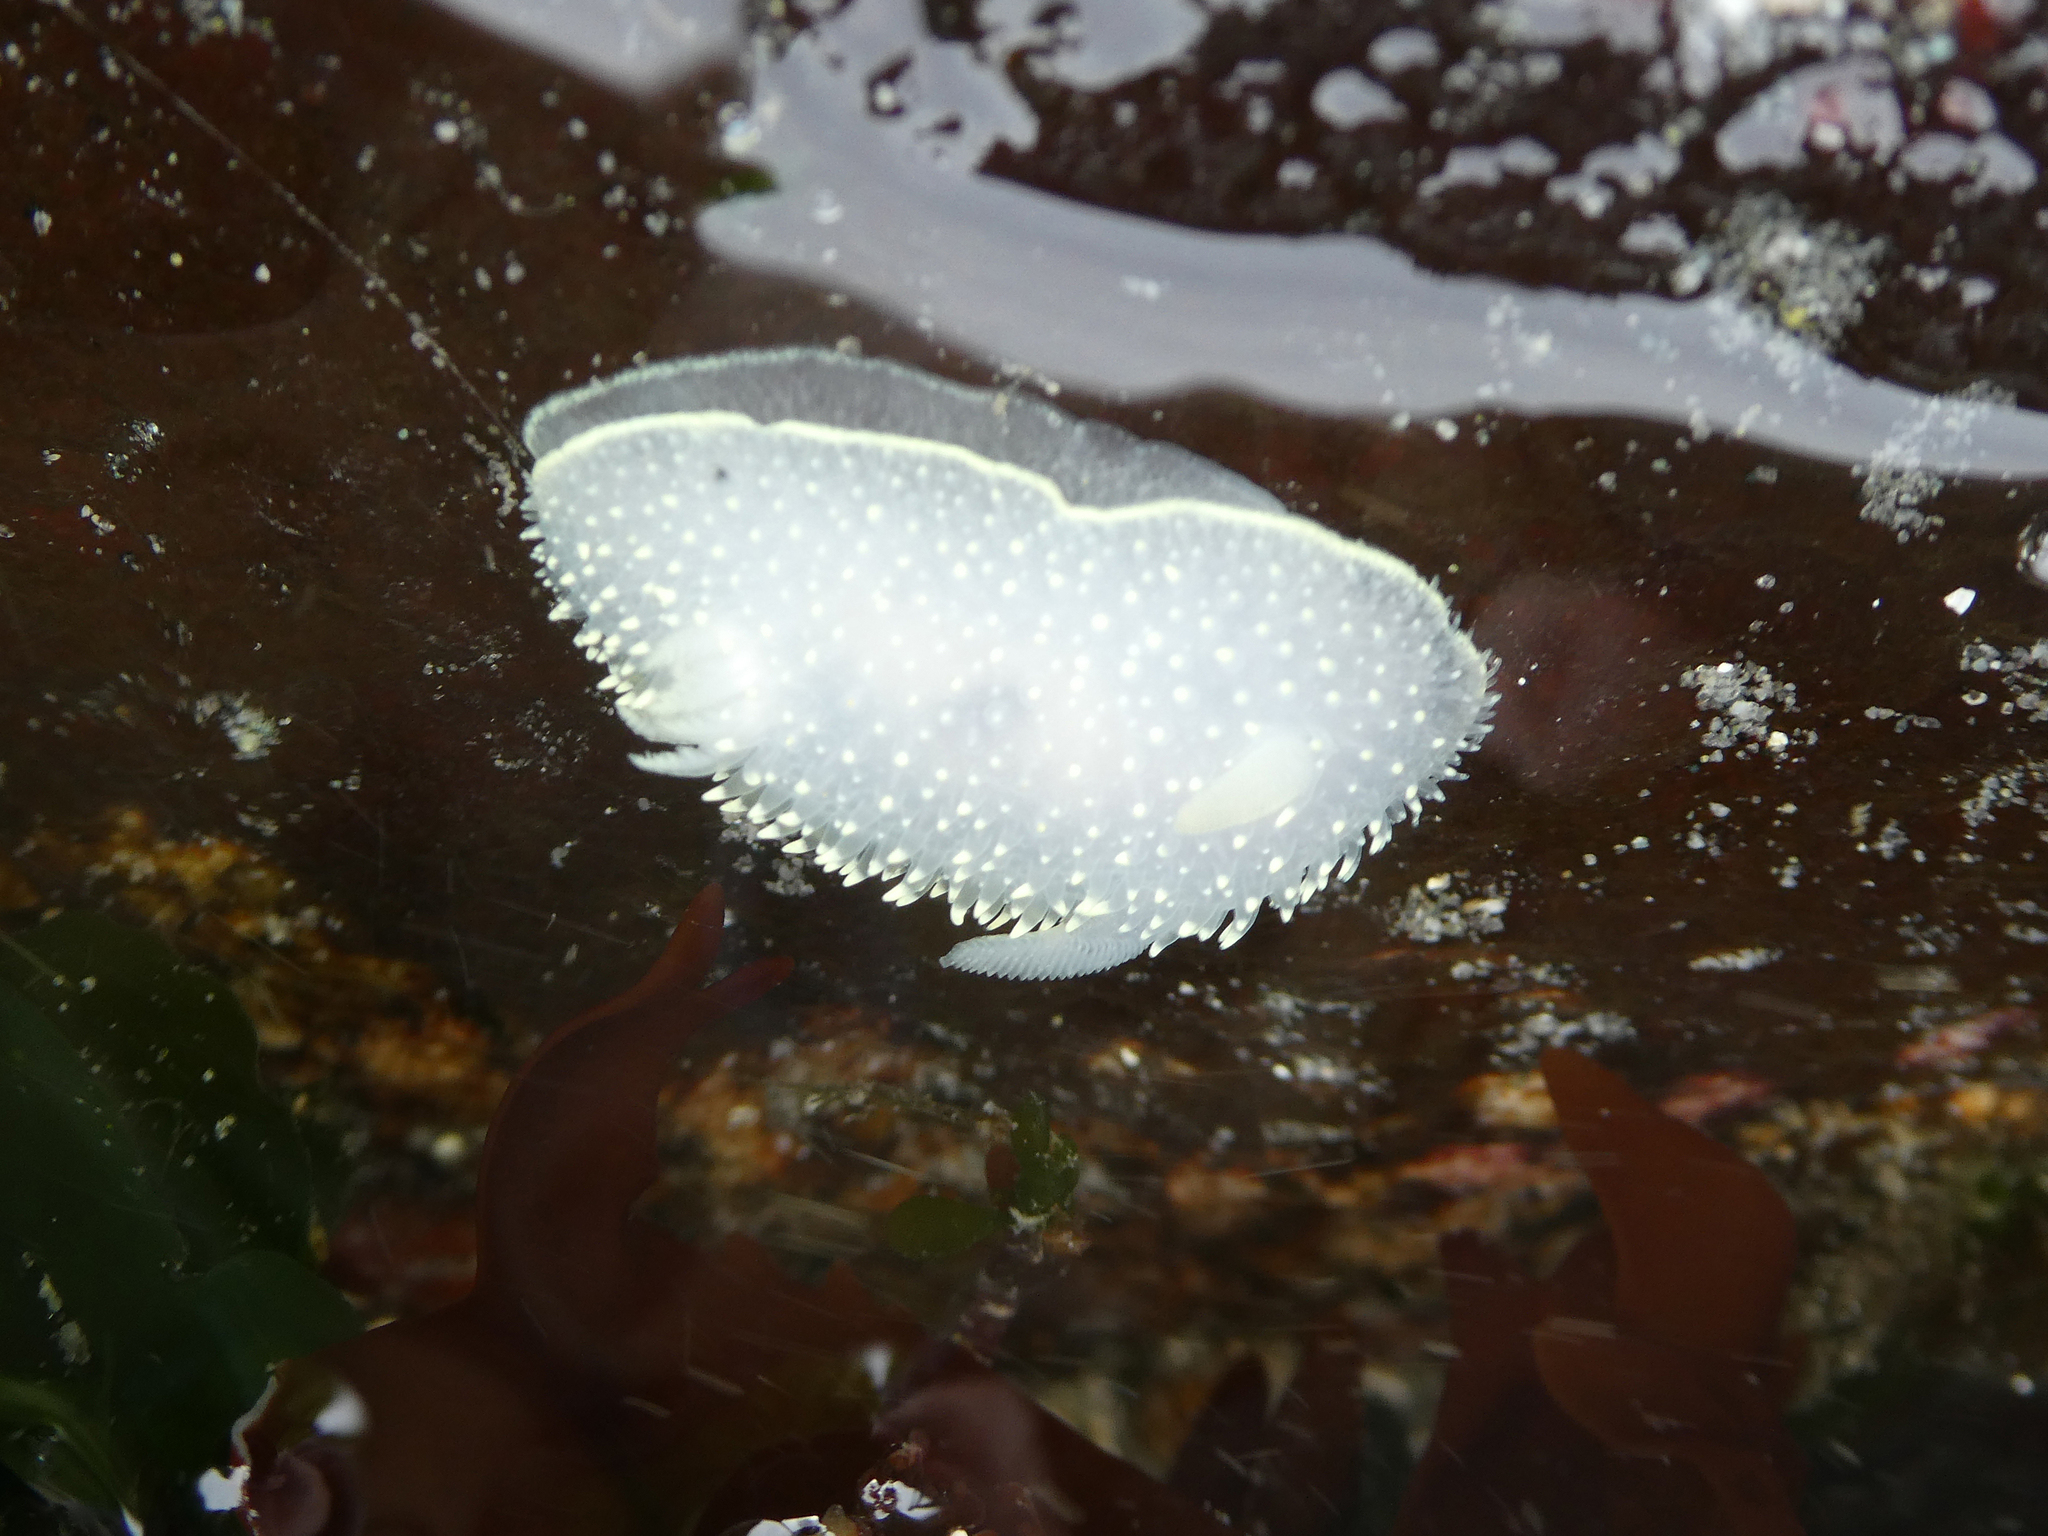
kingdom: Animalia
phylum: Mollusca
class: Gastropoda
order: Nudibranchia
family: Onchidorididae
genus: Acanthodoris
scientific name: Acanthodoris hudsoni
